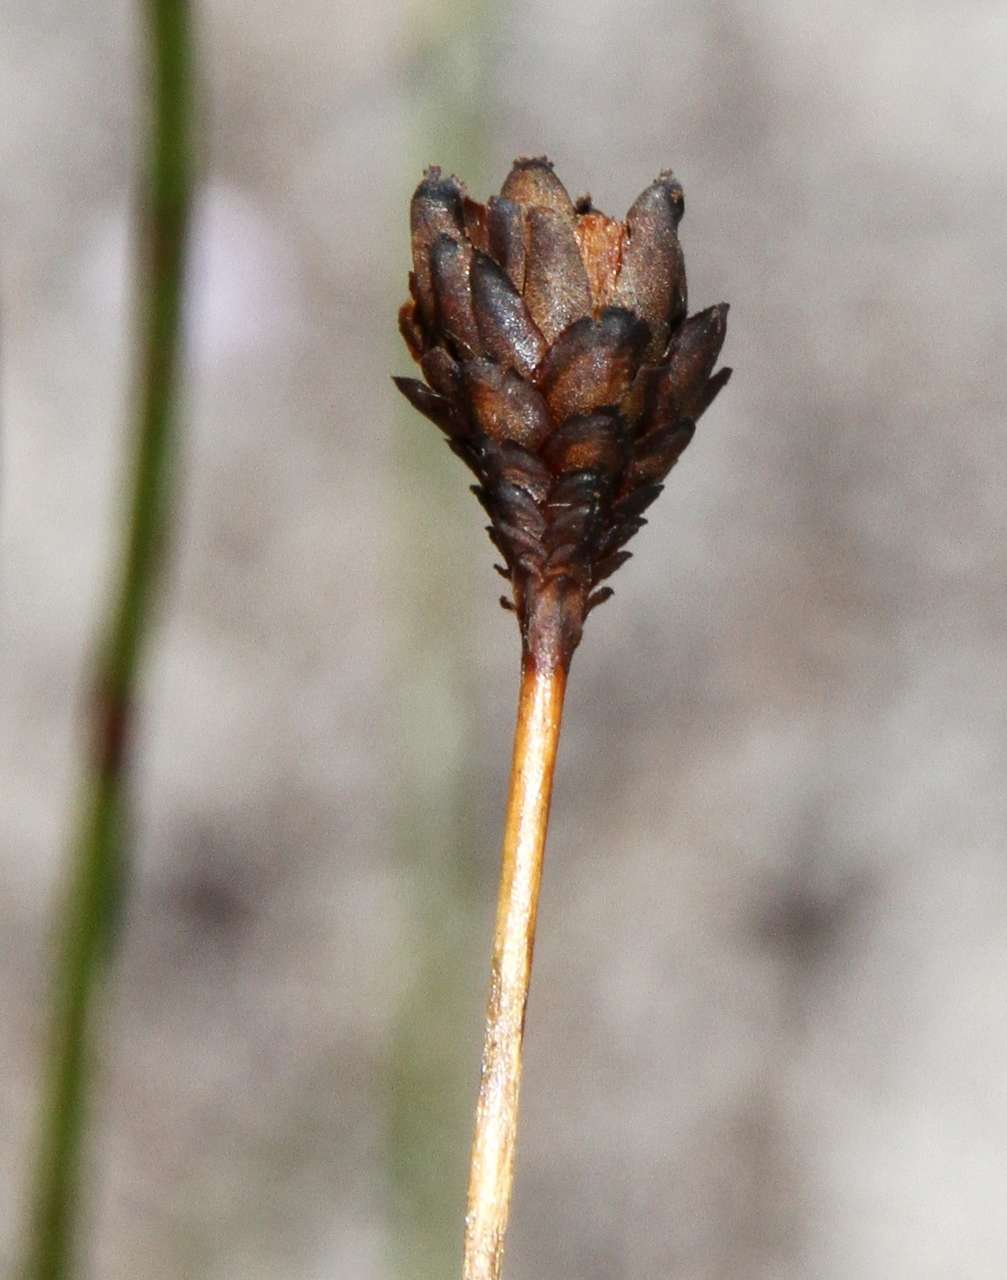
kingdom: Plantae
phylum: Tracheophyta
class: Liliopsida
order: Poales
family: Xyridaceae
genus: Xyris
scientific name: Xyris operculata
